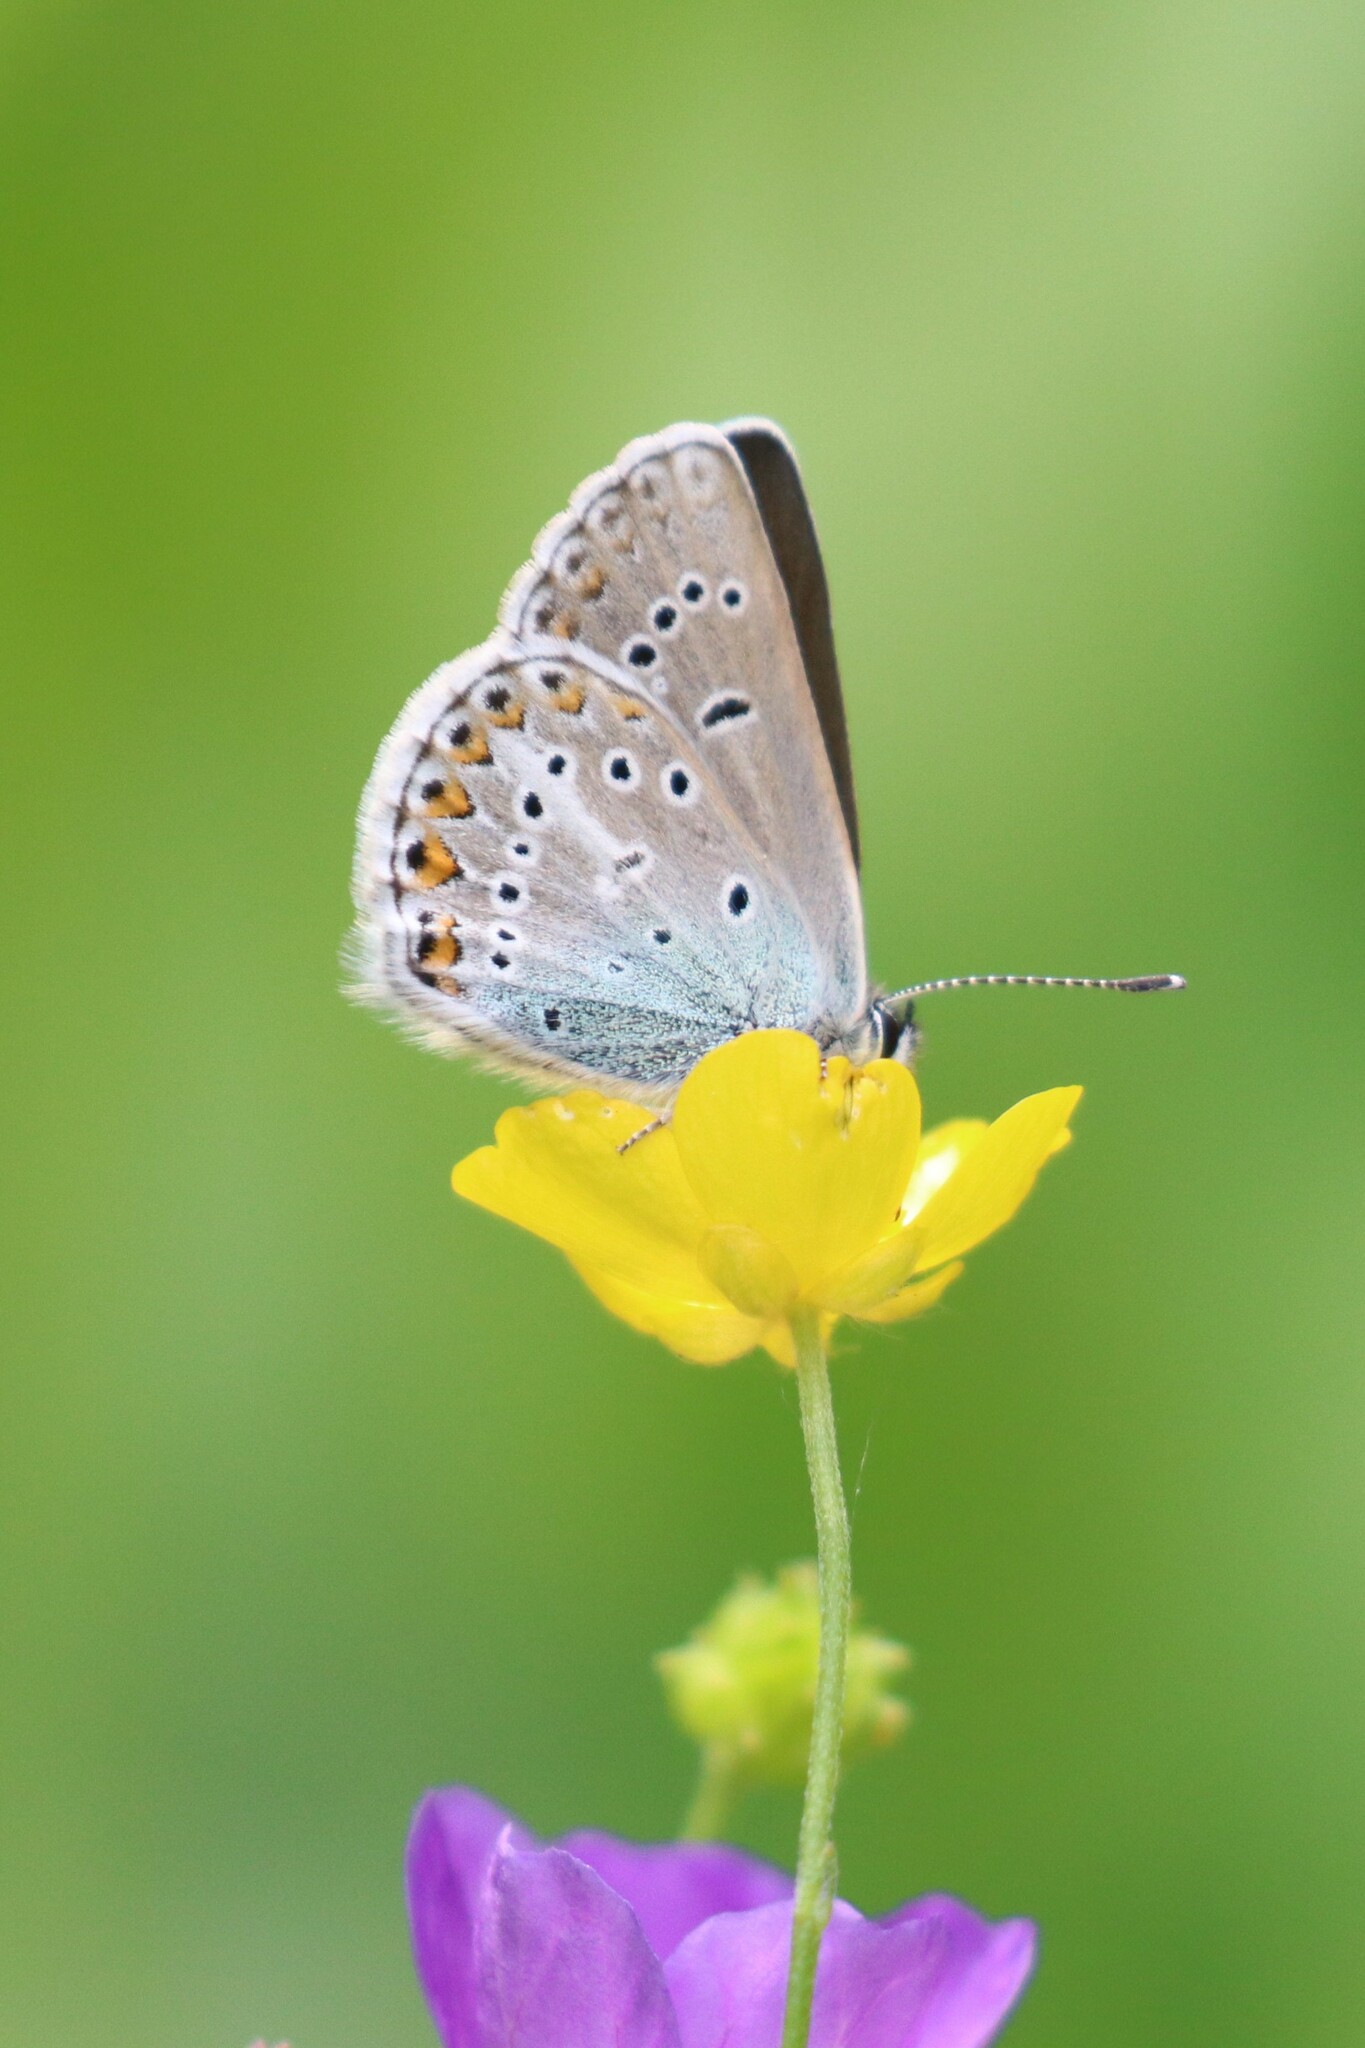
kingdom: Animalia
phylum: Arthropoda
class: Insecta
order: Lepidoptera
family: Lycaenidae
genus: Eumedonia
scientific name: Eumedonia eumedon
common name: Geranium argus
